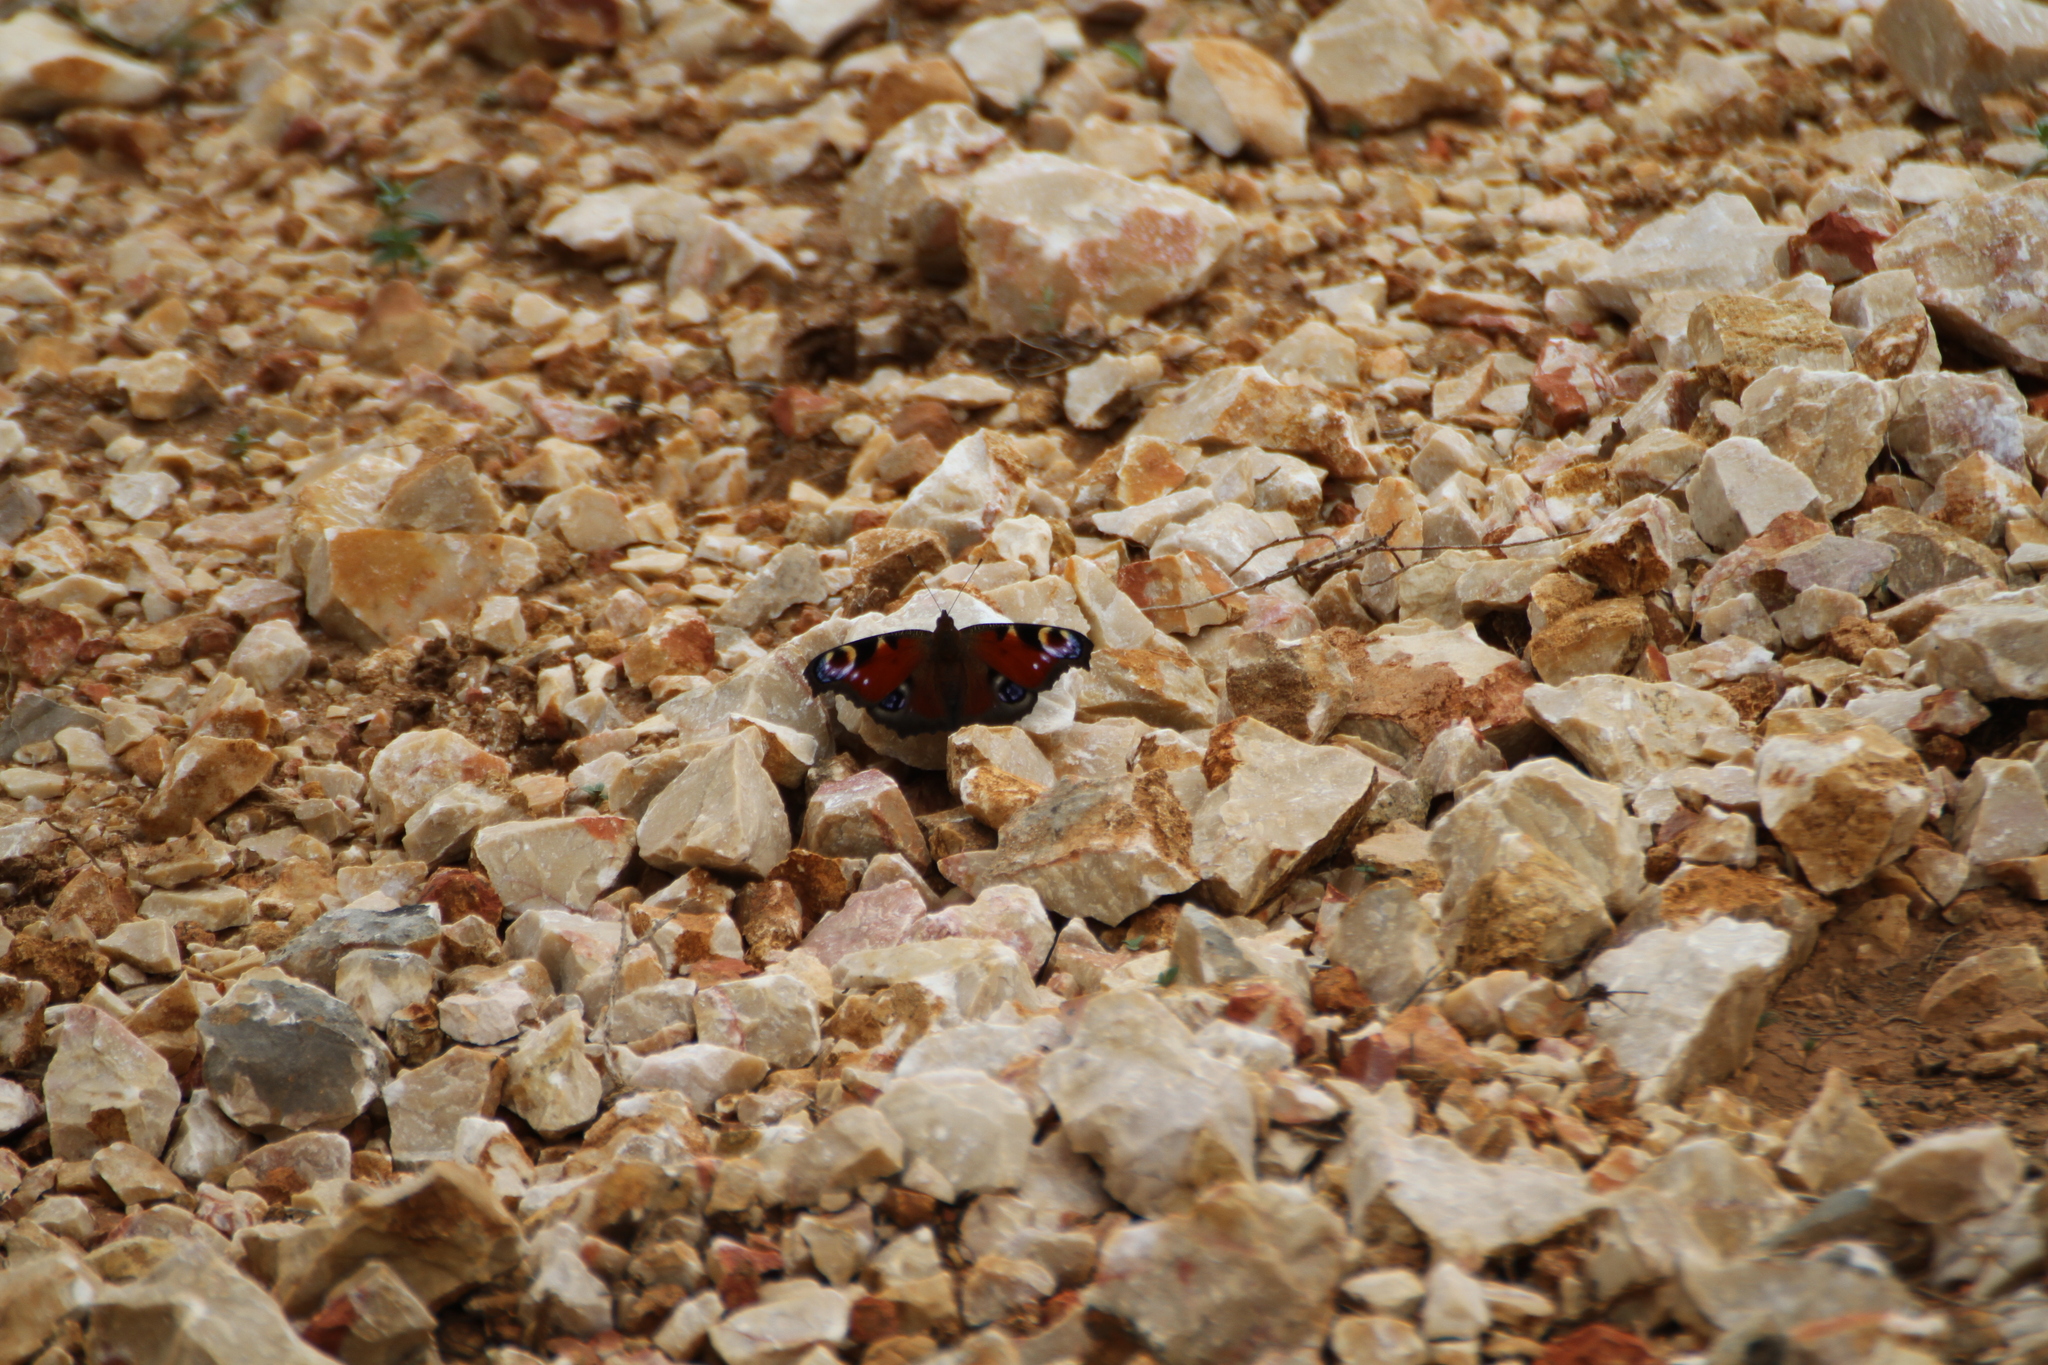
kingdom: Animalia
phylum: Arthropoda
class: Insecta
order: Lepidoptera
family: Nymphalidae
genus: Aglais
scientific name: Aglais io
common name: Peacock
